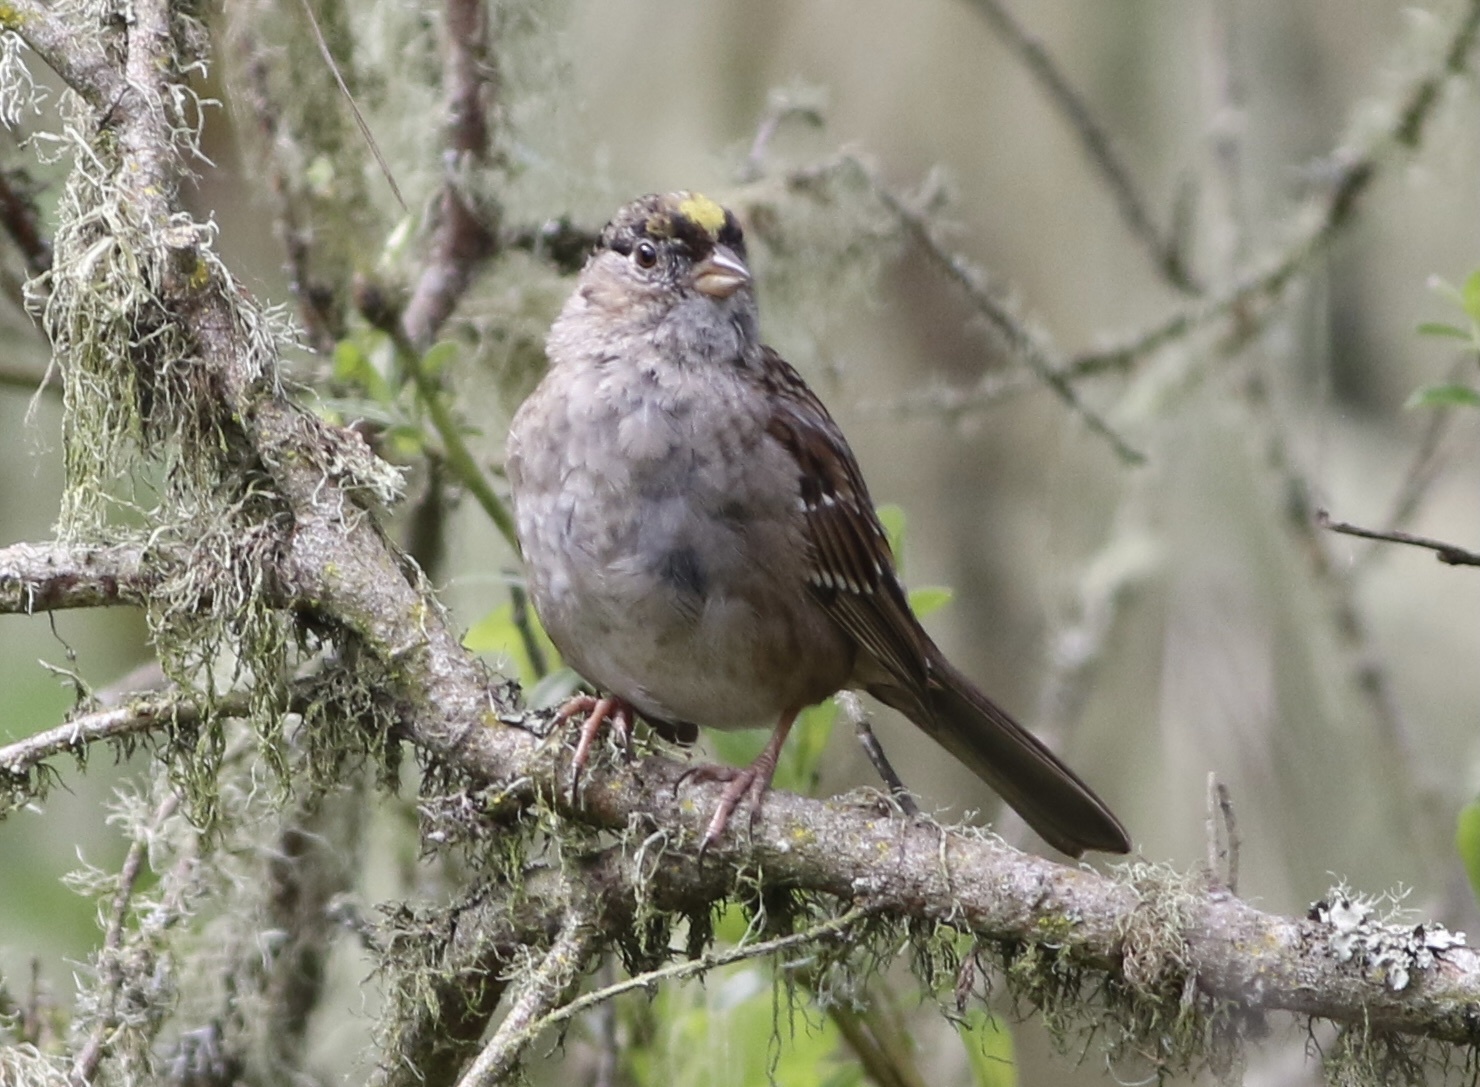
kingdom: Animalia
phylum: Chordata
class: Aves
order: Passeriformes
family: Passerellidae
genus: Zonotrichia
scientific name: Zonotrichia atricapilla
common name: Golden-crowned sparrow
